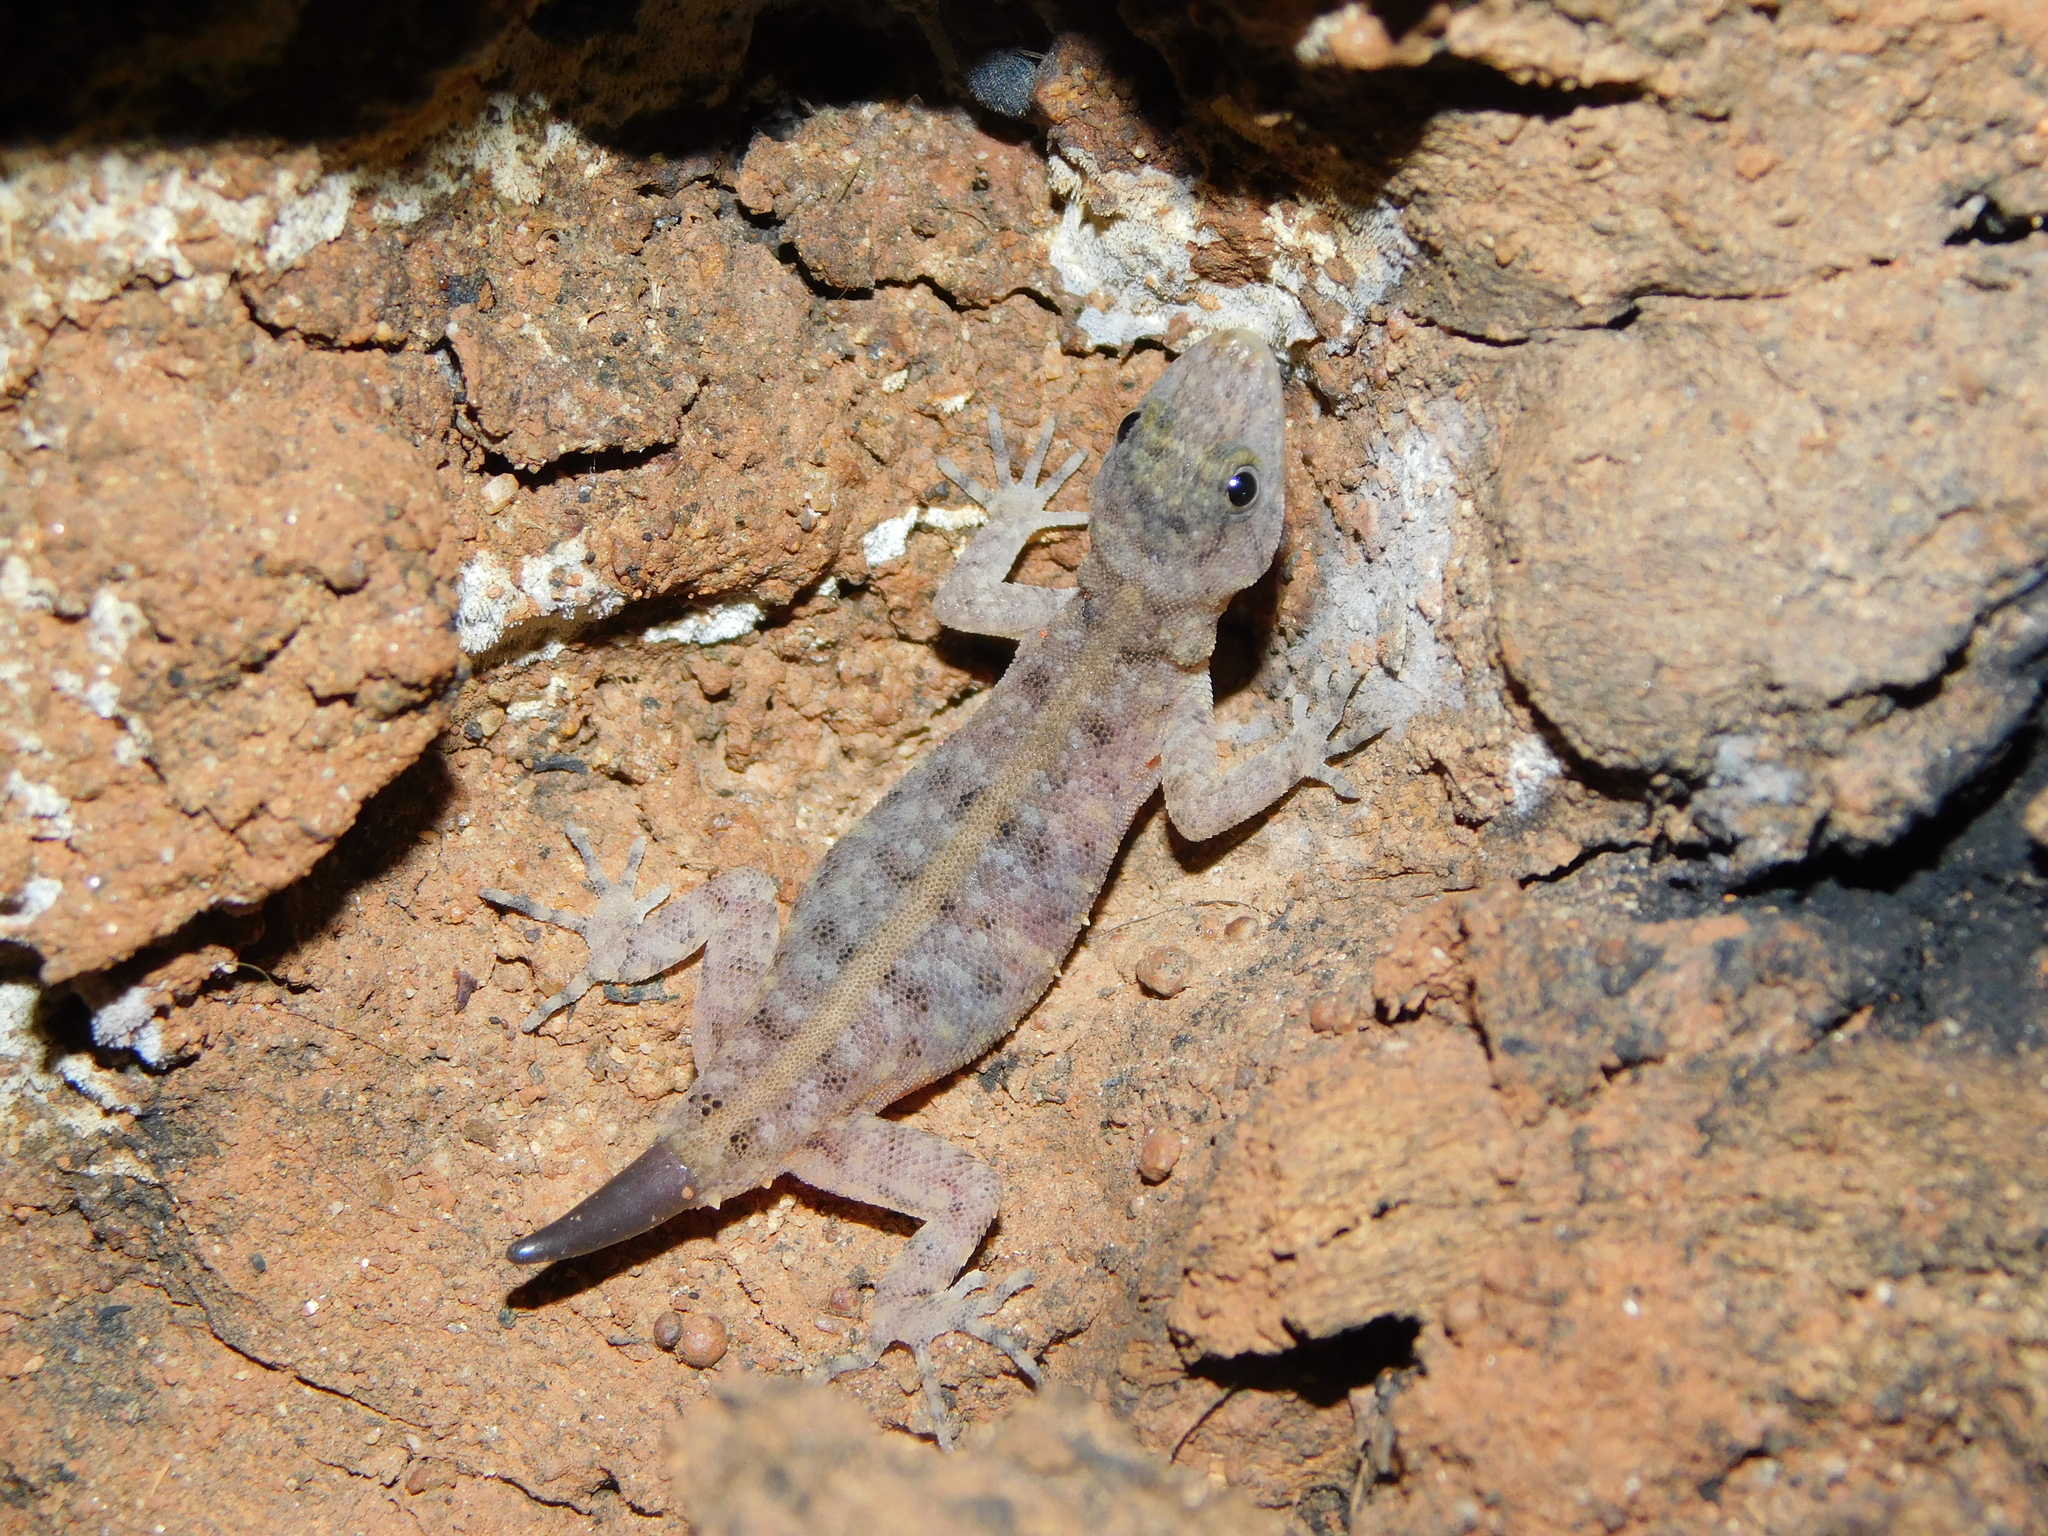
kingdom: Animalia
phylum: Chordata
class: Squamata
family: Gekkonidae
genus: Cnemaspis
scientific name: Cnemaspis mysoriensis
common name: Mysore day gecko
